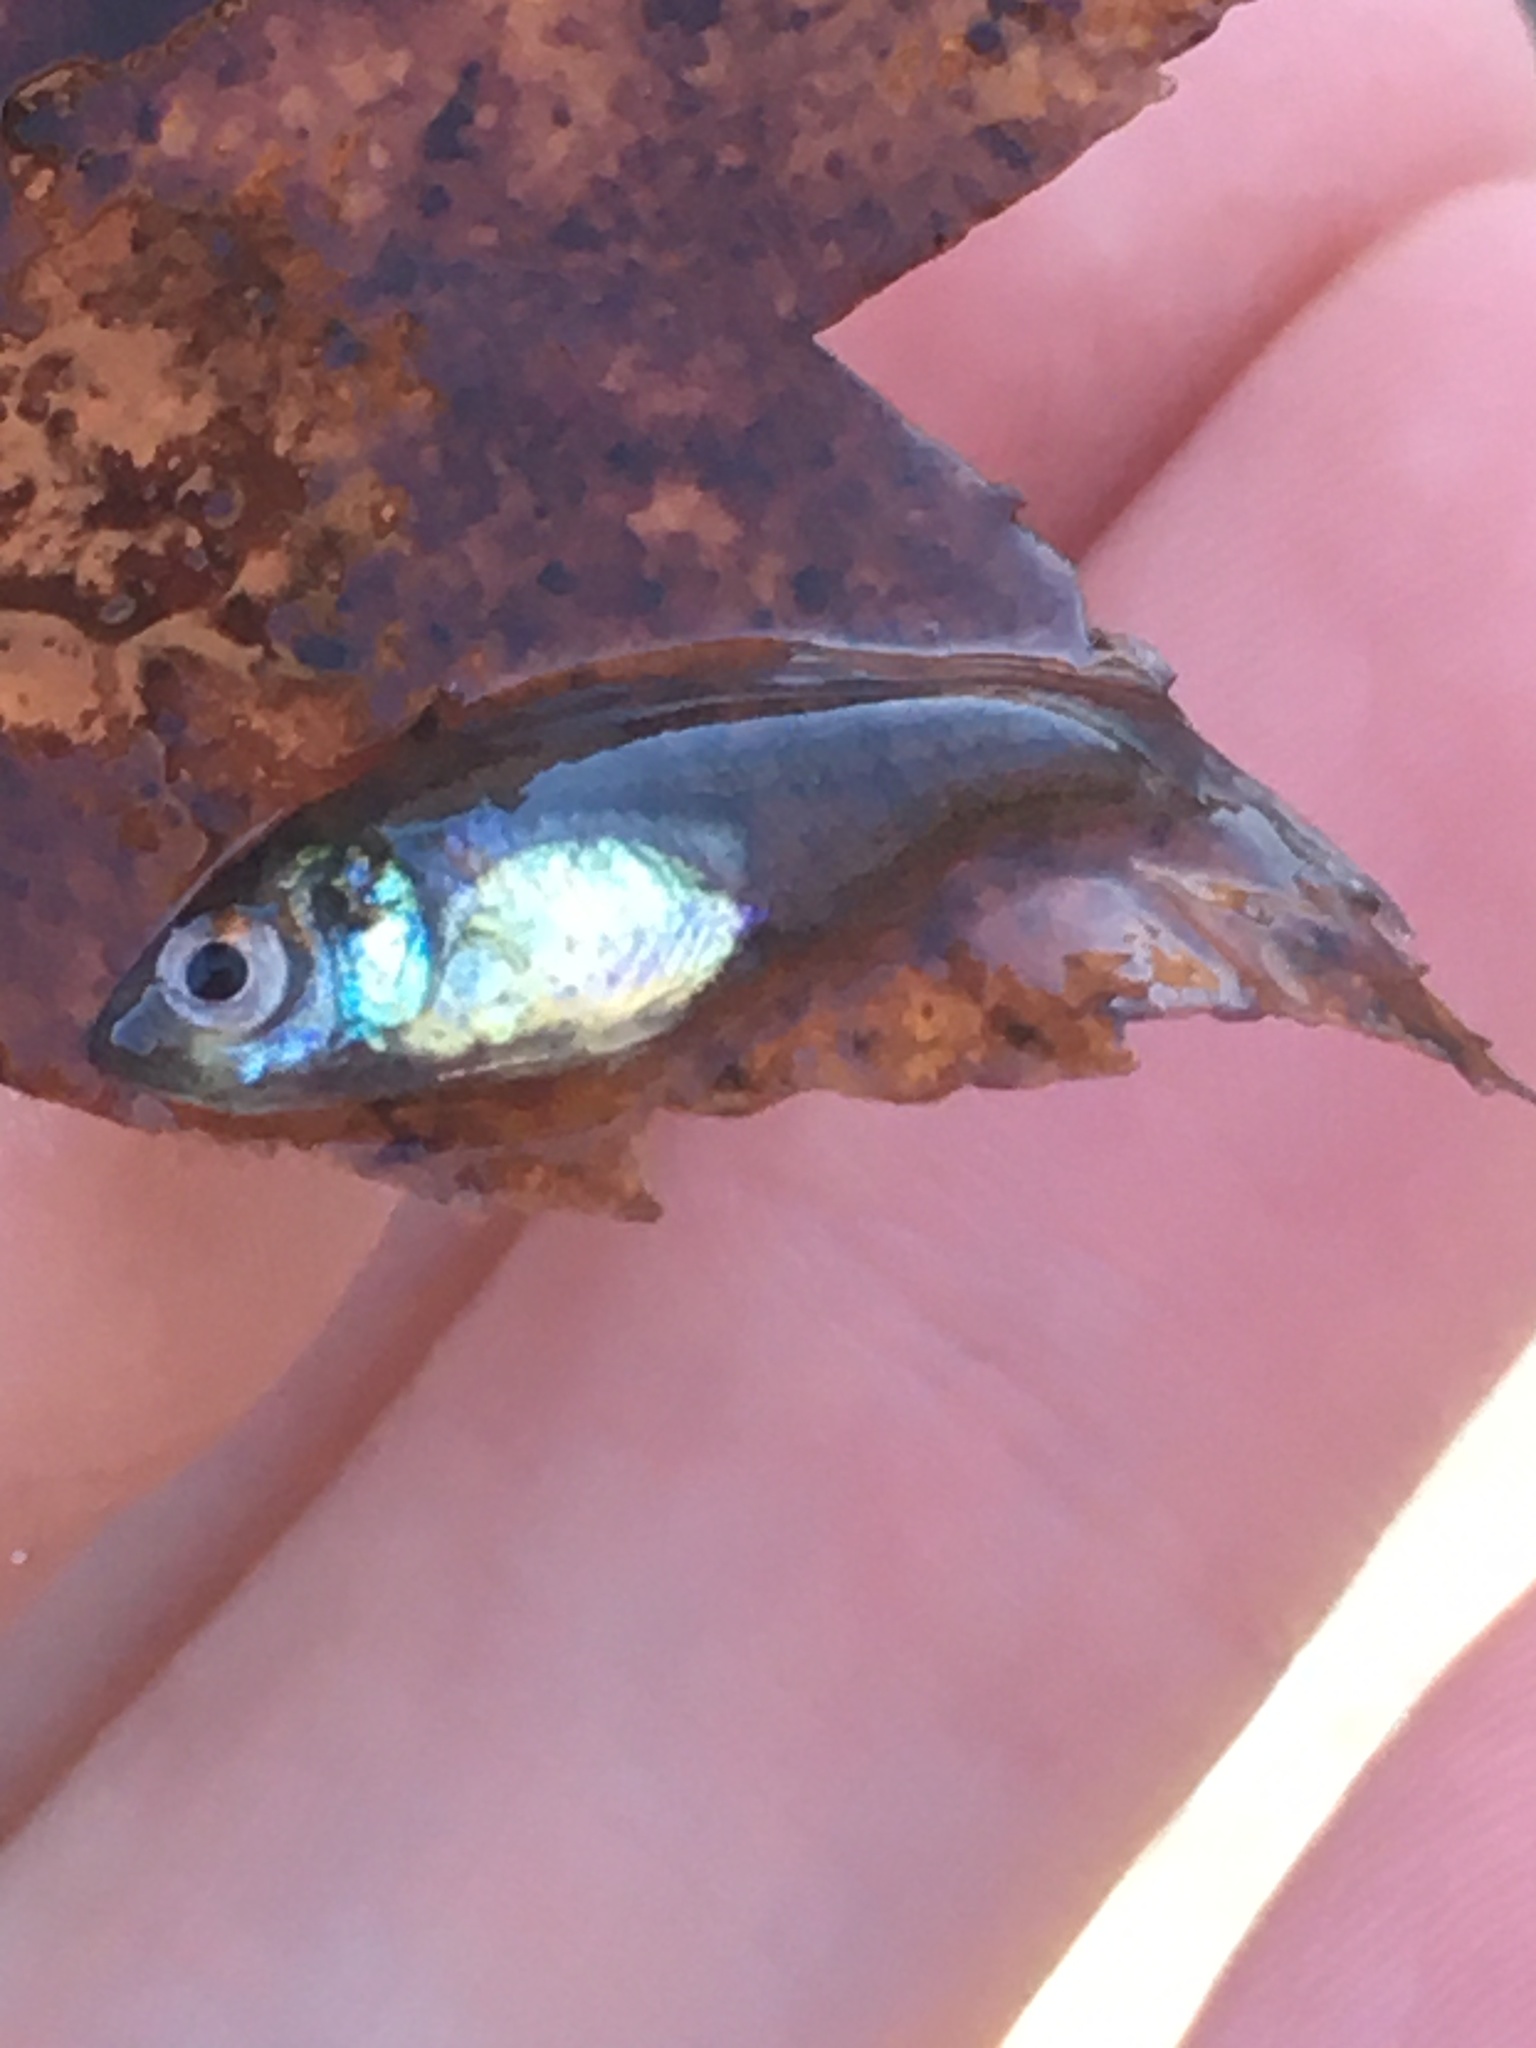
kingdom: Animalia
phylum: Chordata
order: Perciformes
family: Centrarchidae
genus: Lepomis
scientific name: Lepomis gibbosus
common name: Pumpkinseed
